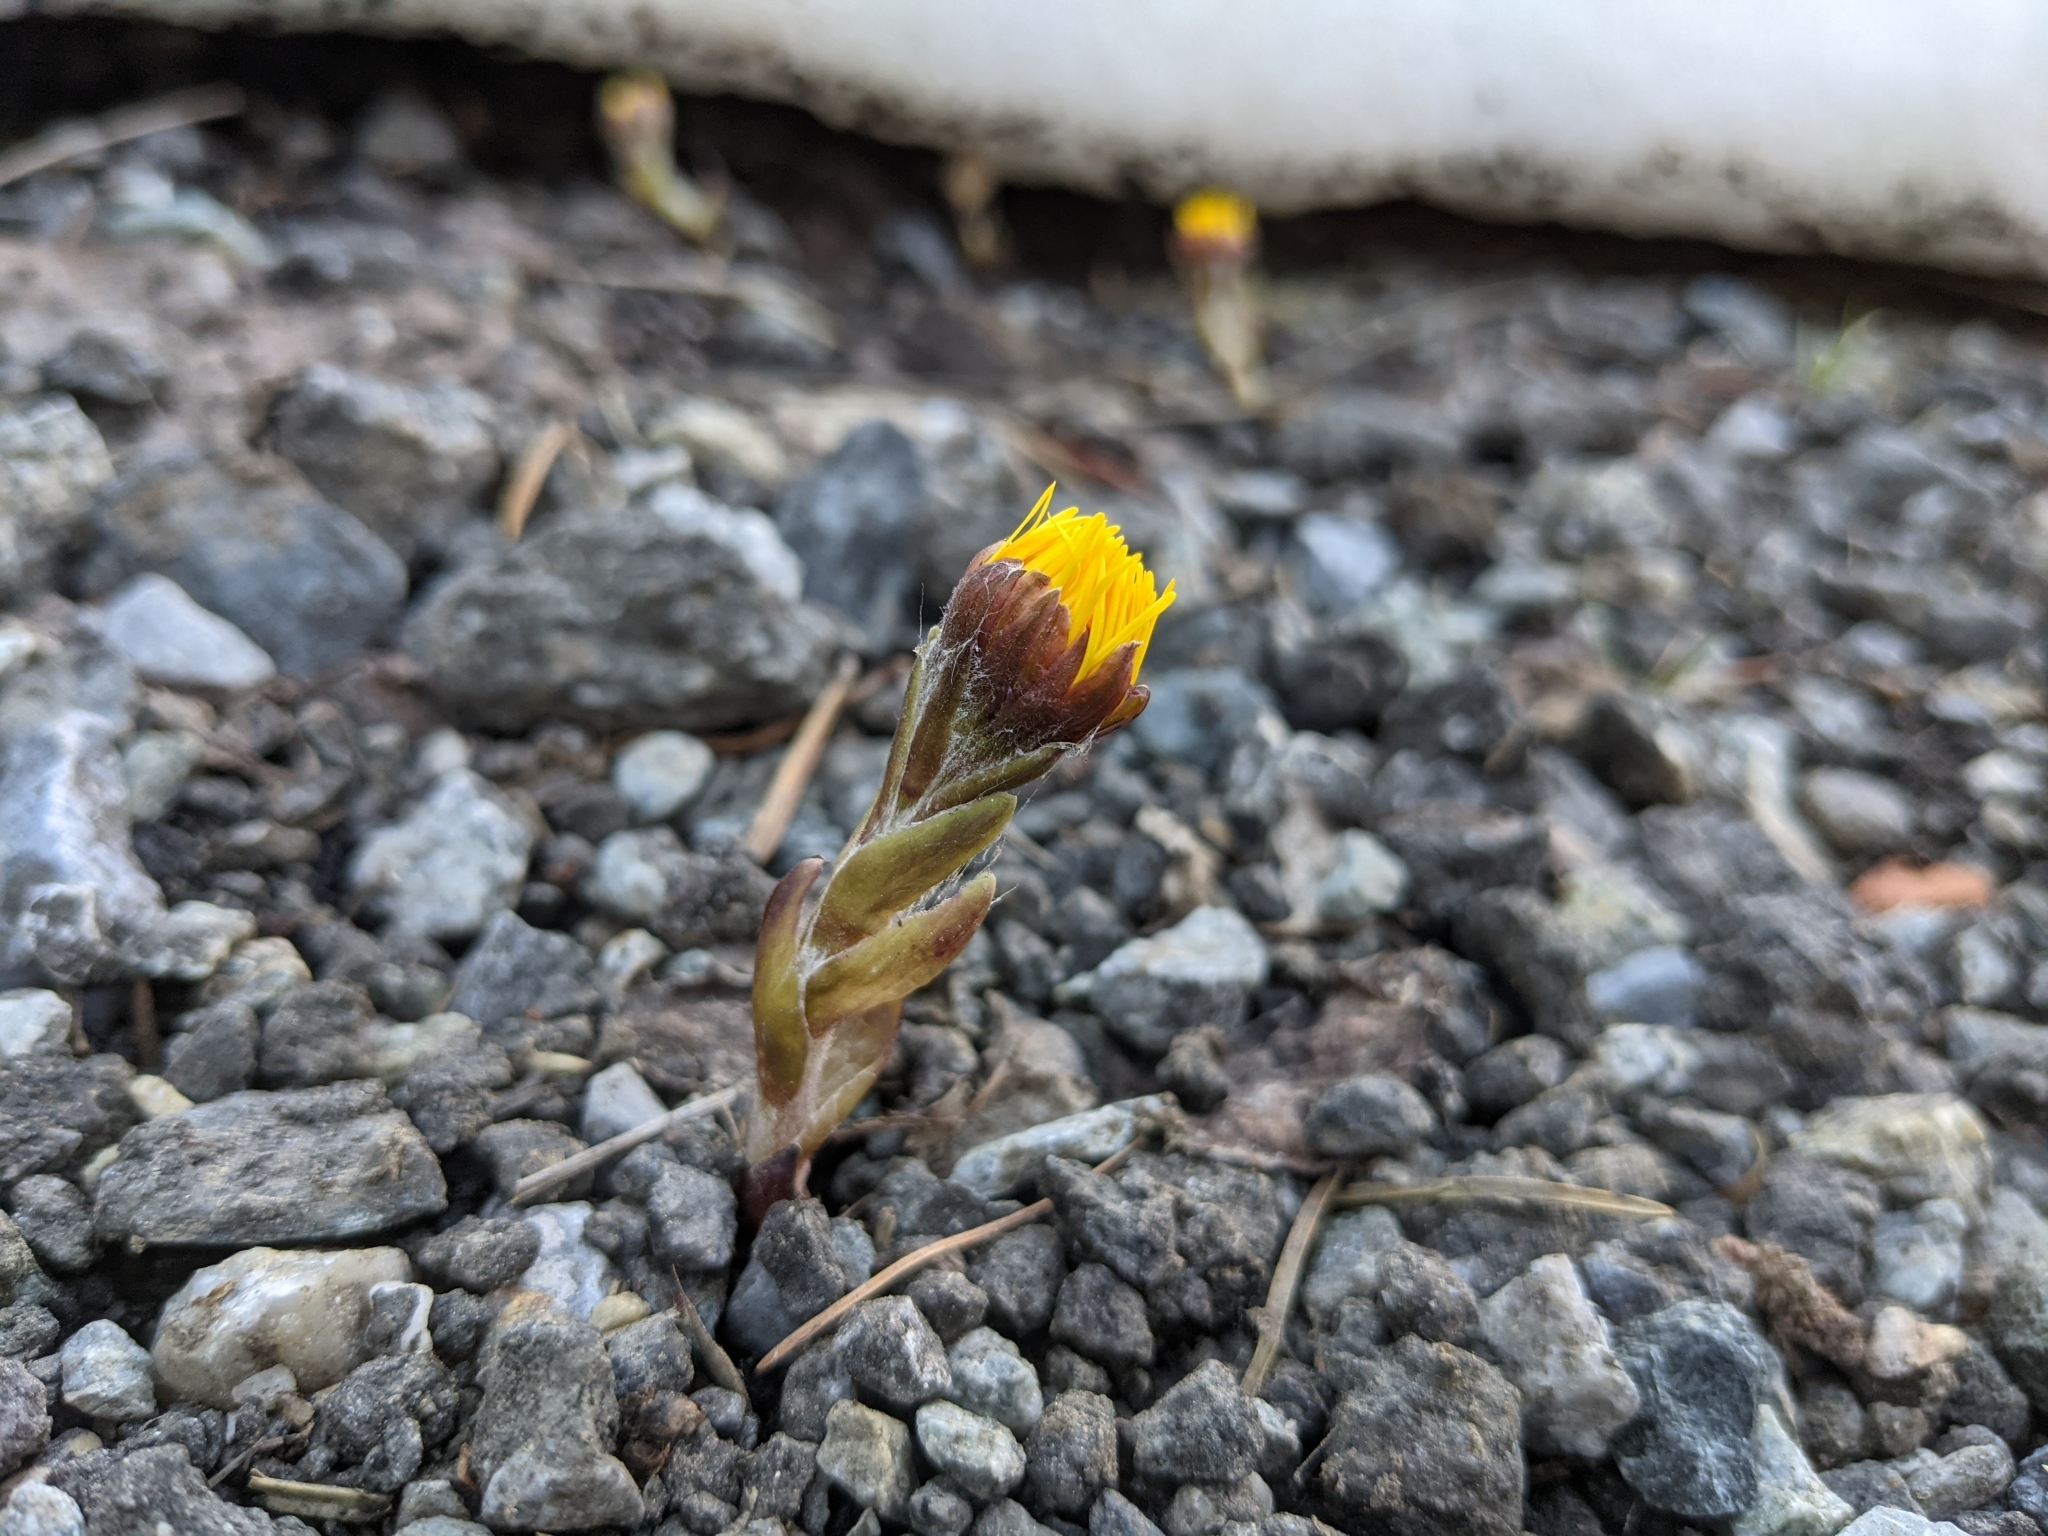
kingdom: Plantae
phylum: Tracheophyta
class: Magnoliopsida
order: Asterales
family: Asteraceae
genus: Tussilago
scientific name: Tussilago farfara
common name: Coltsfoot
